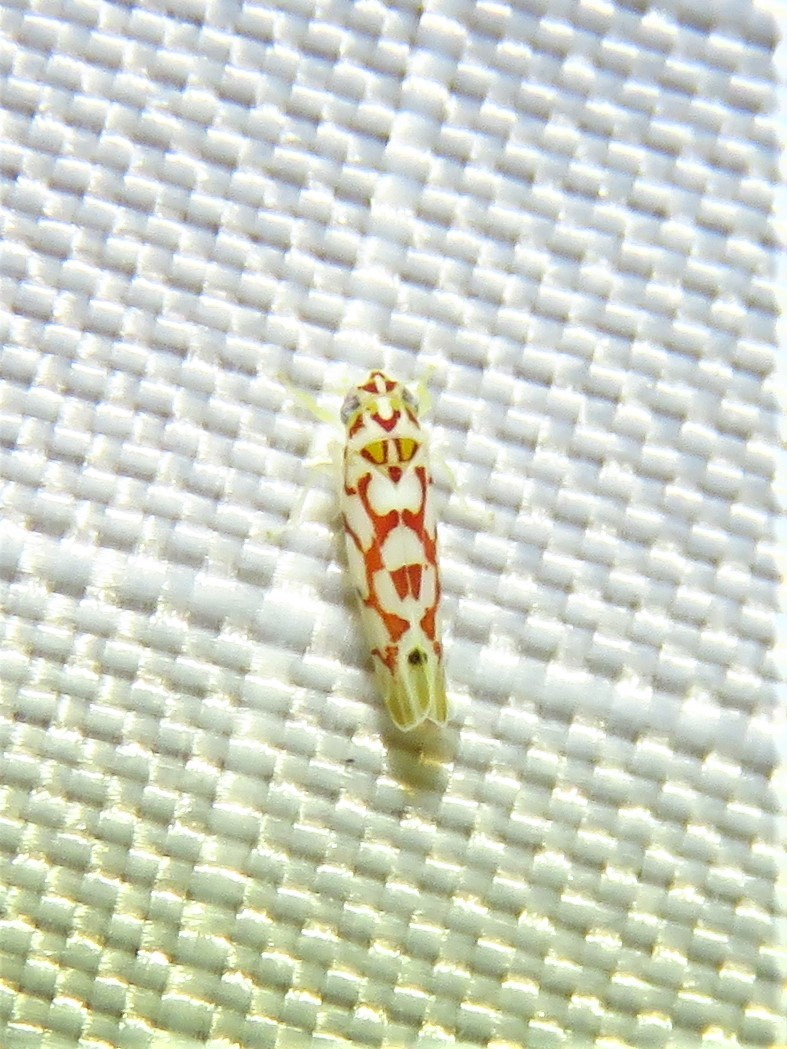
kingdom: Animalia
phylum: Arthropoda
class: Insecta
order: Hemiptera
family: Cicadellidae
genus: Eratoneura
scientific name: Eratoneura ligata
